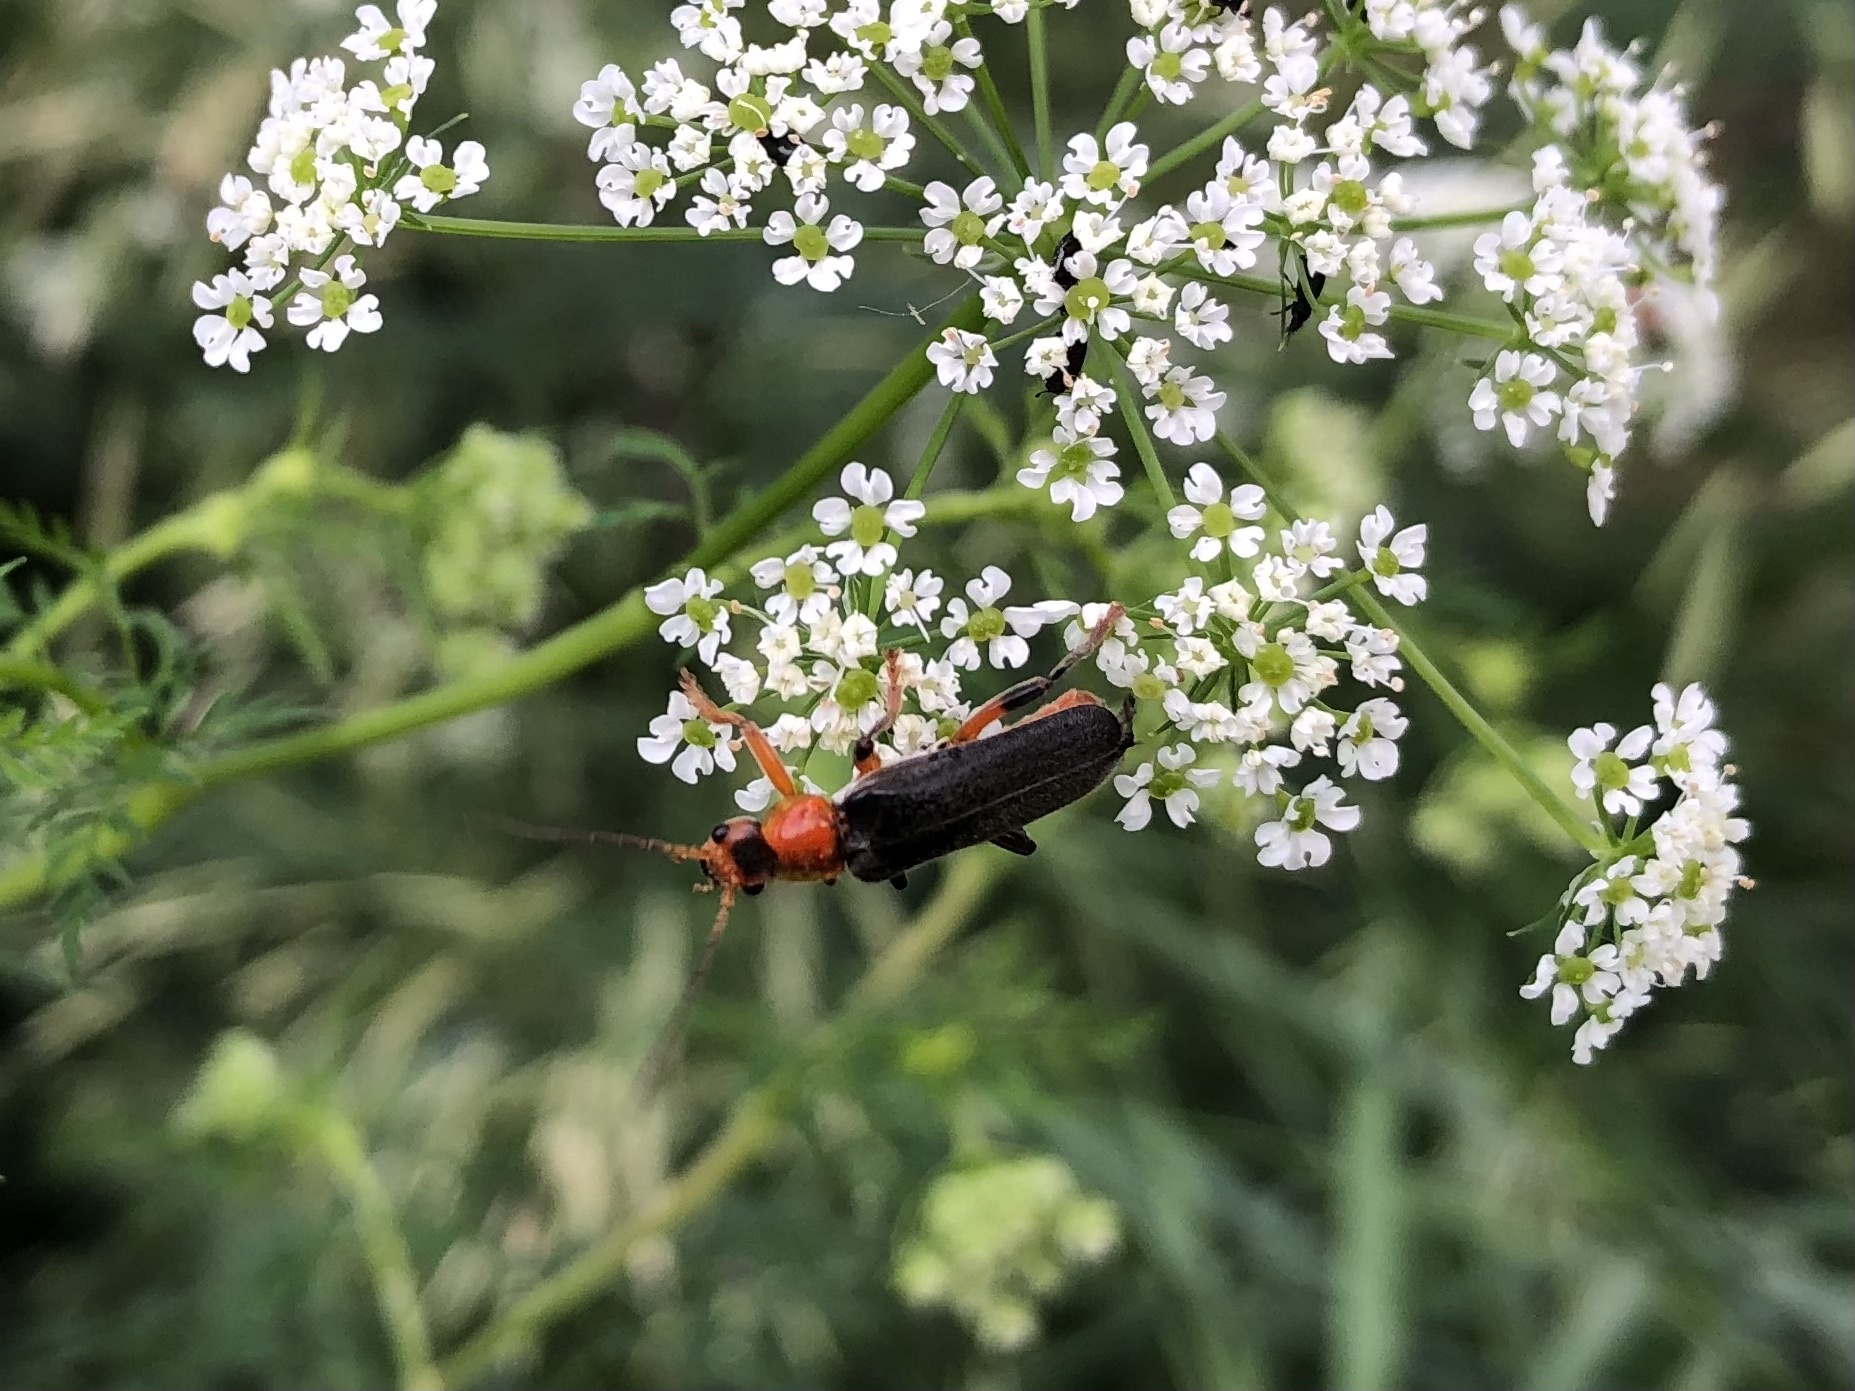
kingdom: Animalia
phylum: Arthropoda
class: Insecta
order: Coleoptera
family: Cantharidae
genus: Cantharis
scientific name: Cantharis livida
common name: Livid soldier beetle
